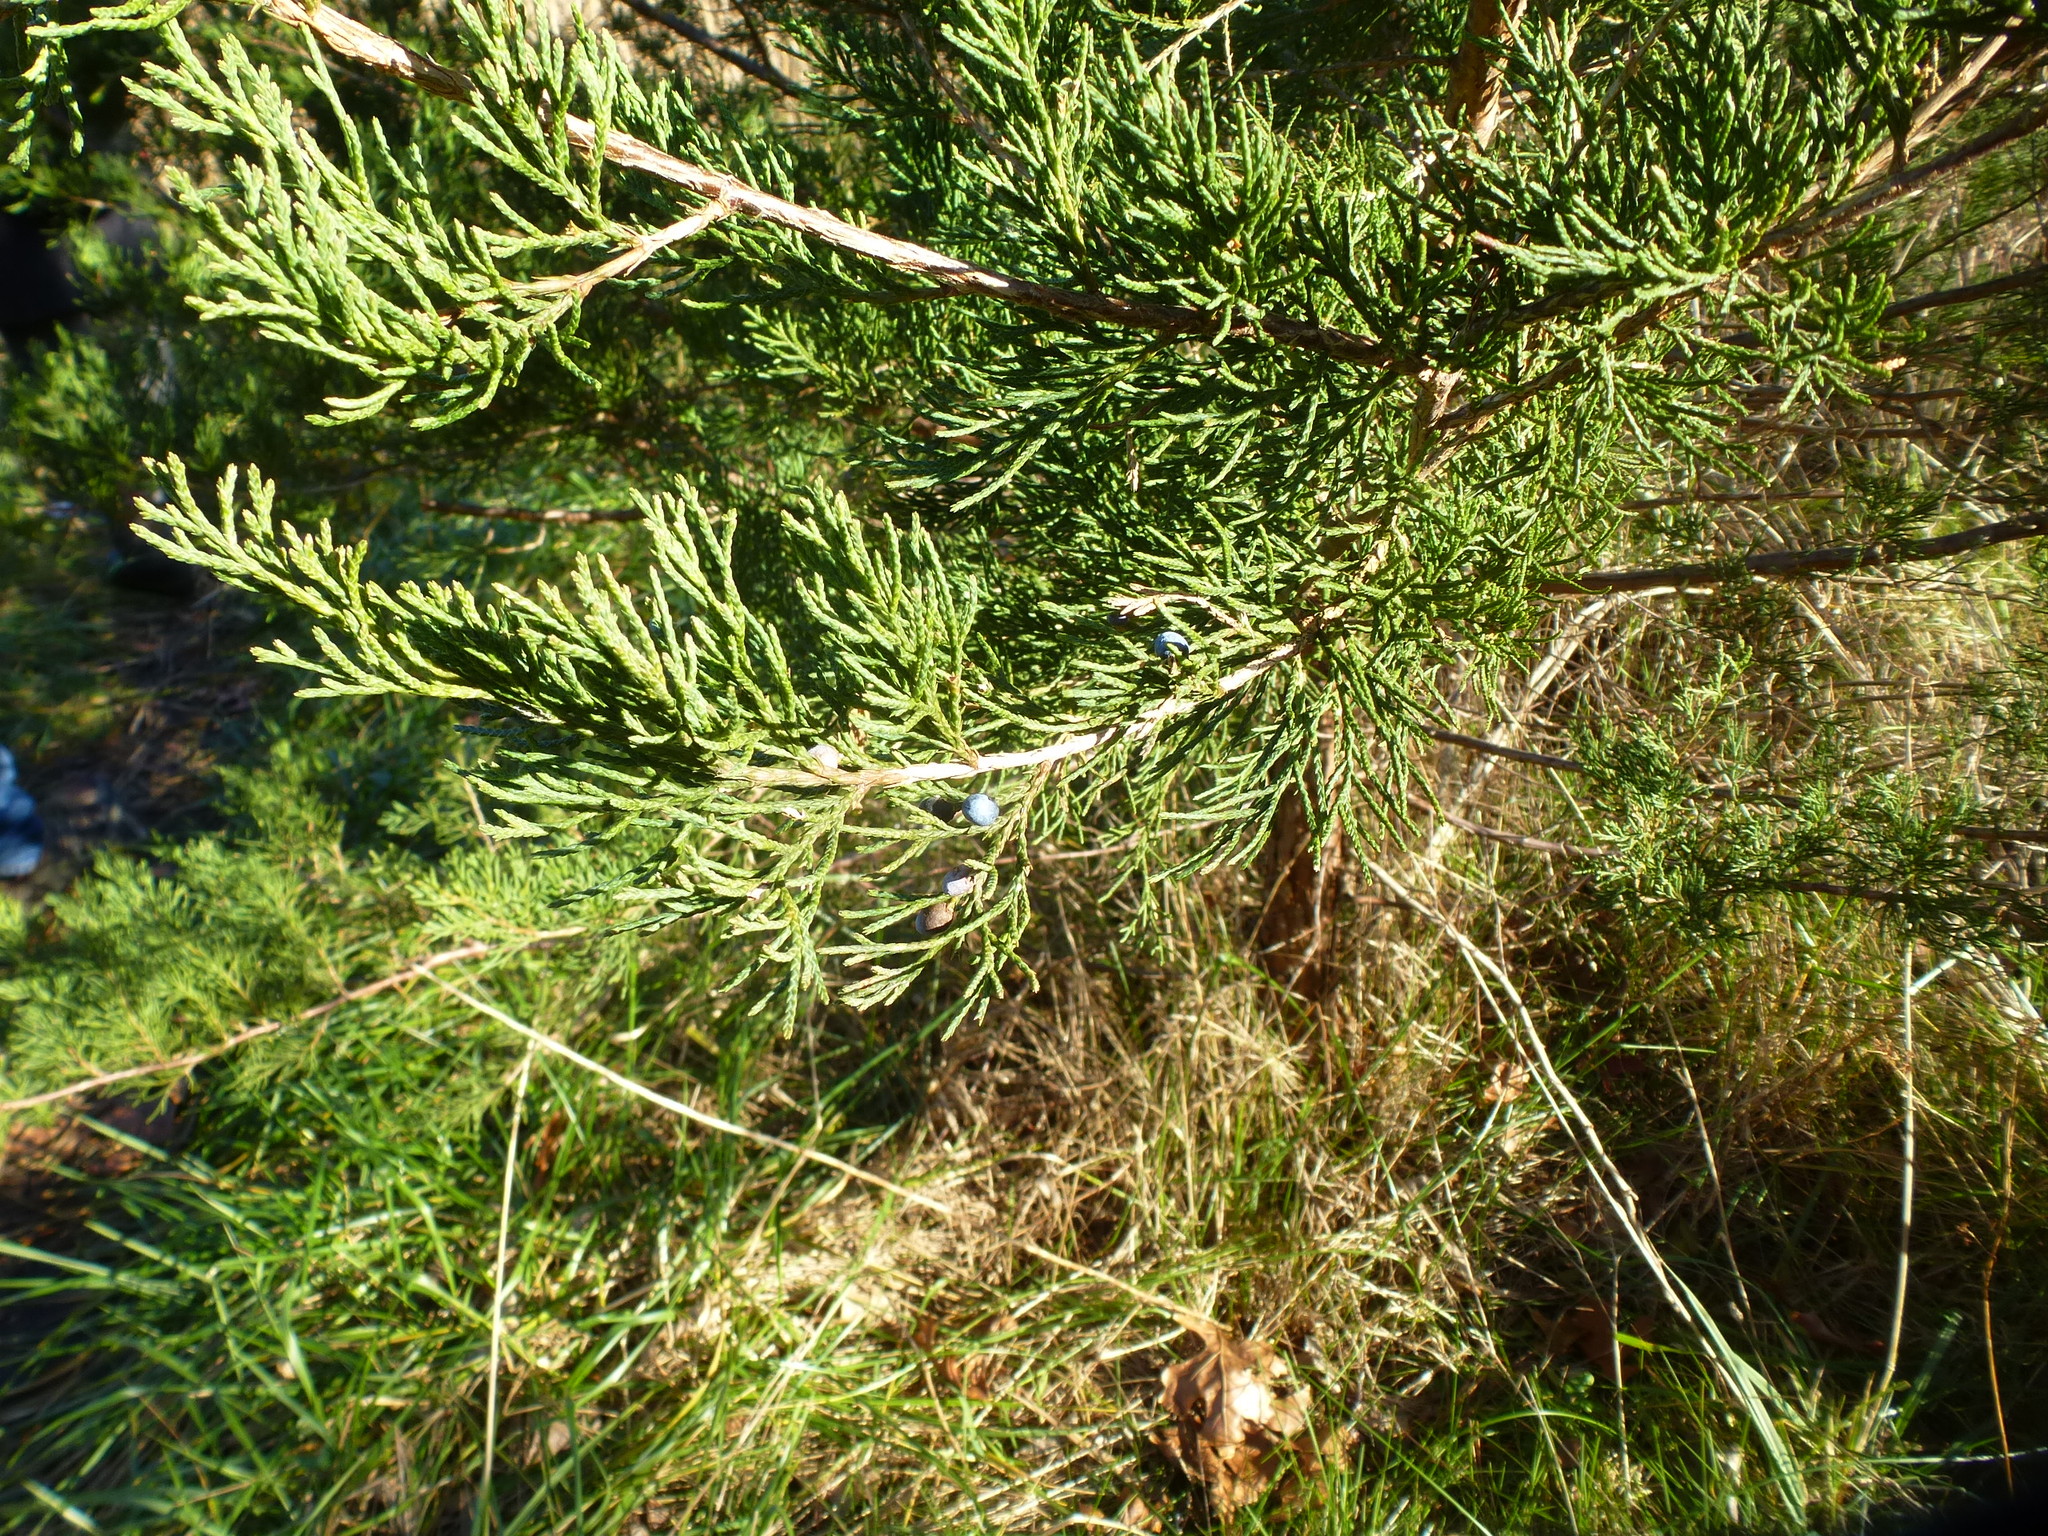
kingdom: Plantae
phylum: Tracheophyta
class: Pinopsida
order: Pinales
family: Cupressaceae
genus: Juniperus
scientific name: Juniperus virginiana
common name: Red juniper
